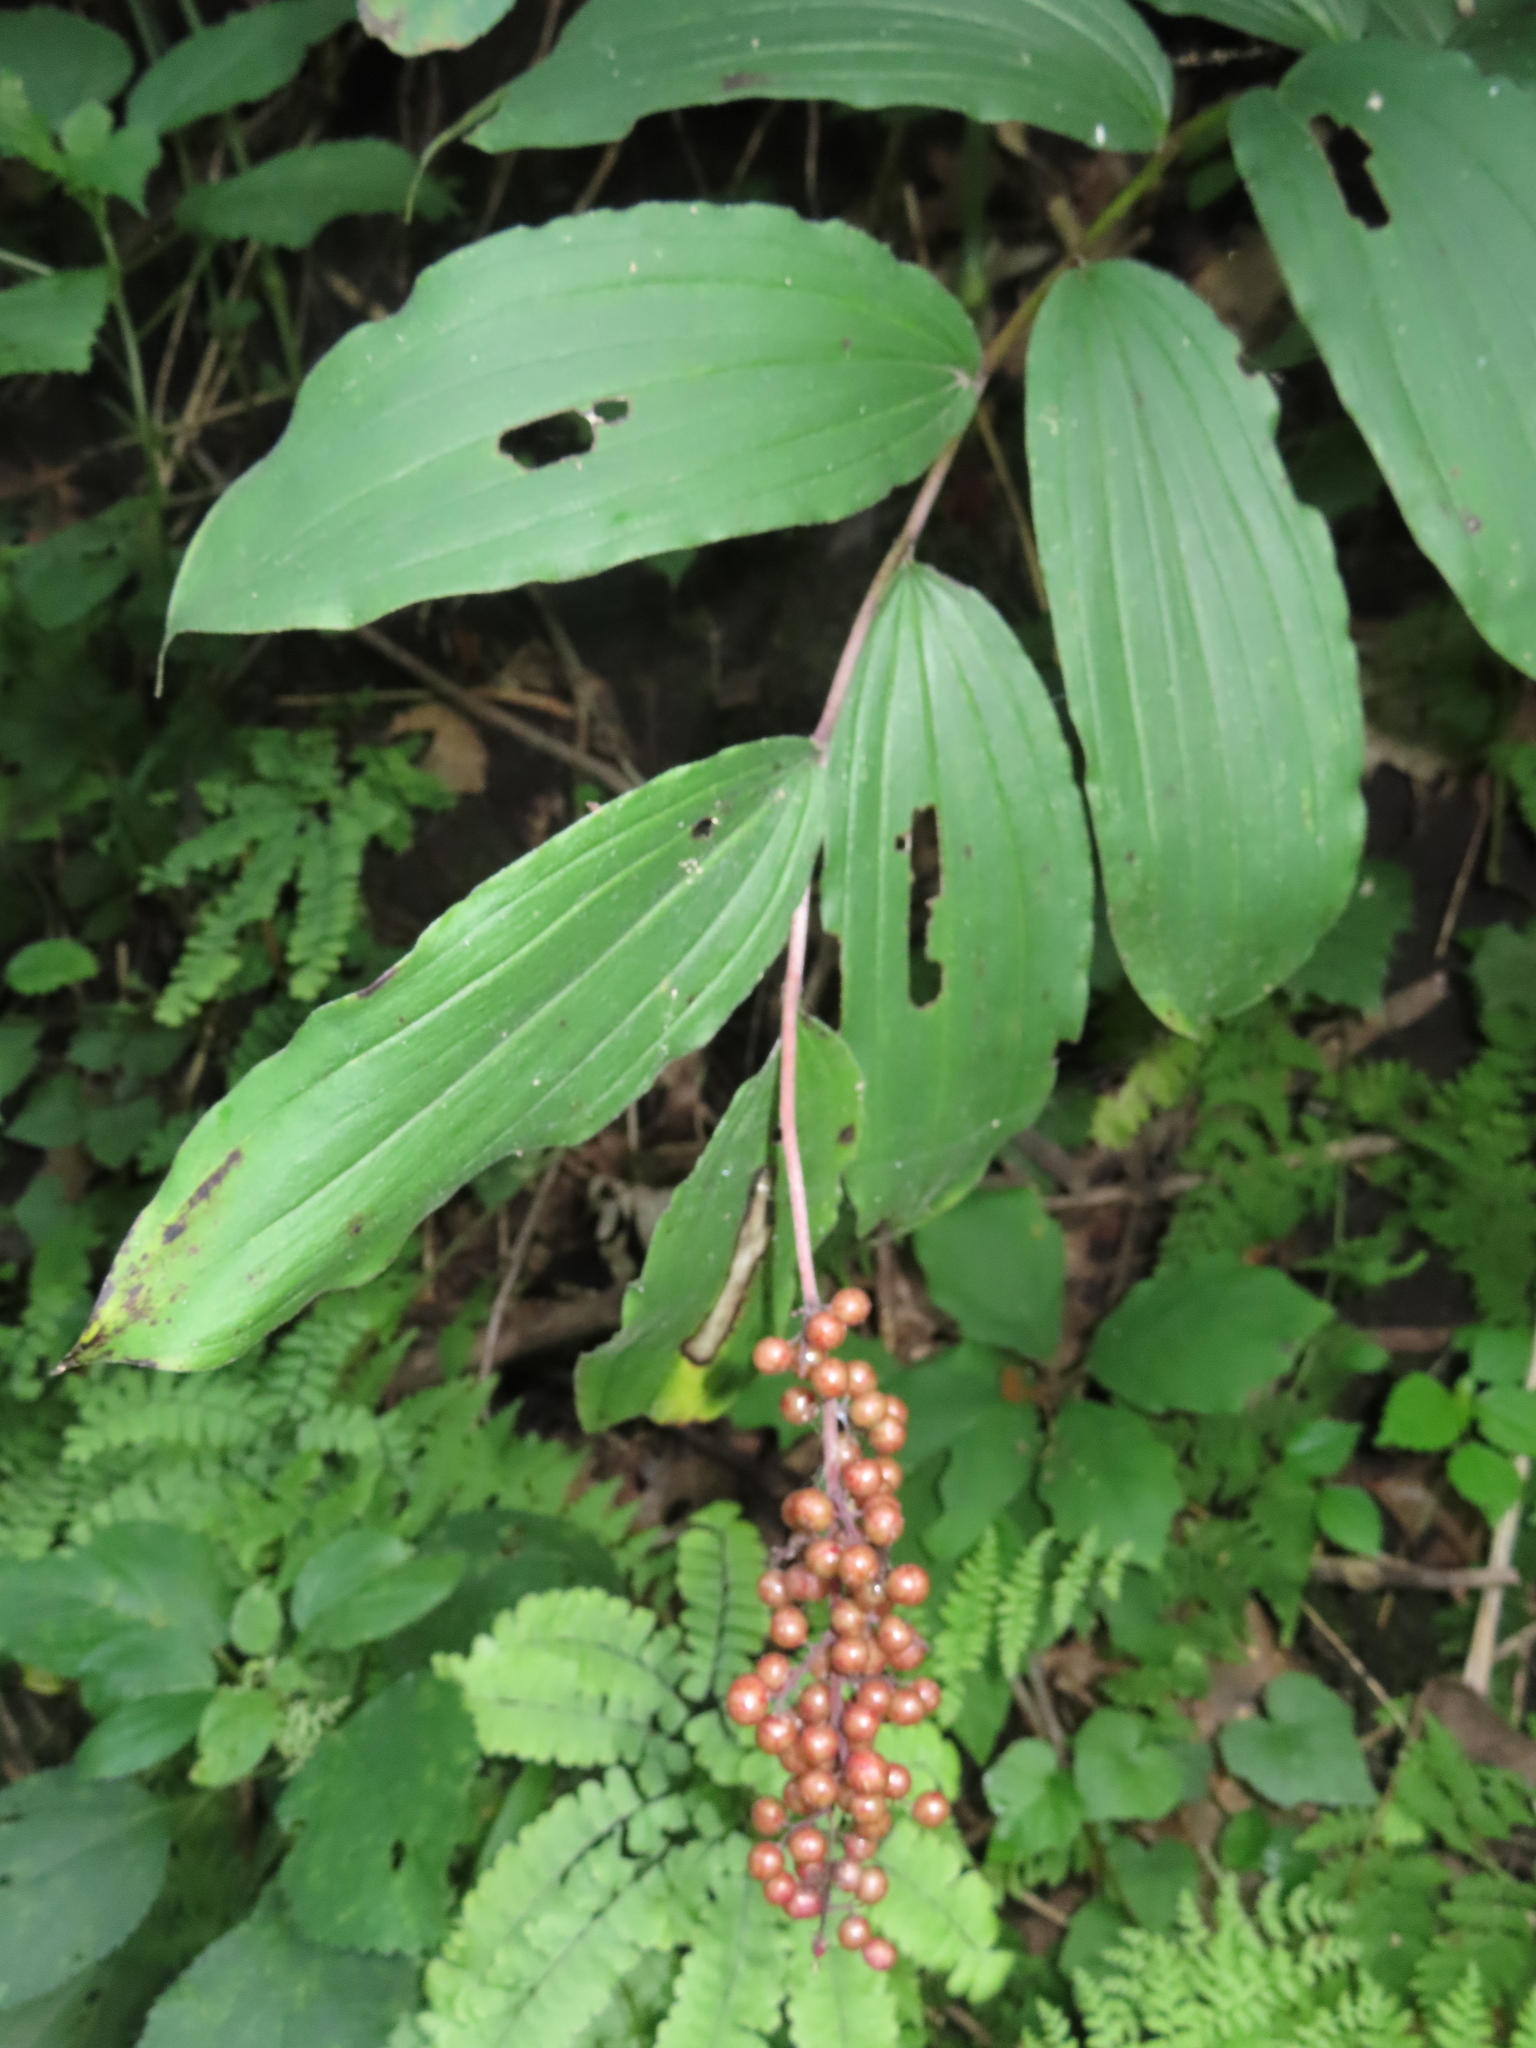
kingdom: Plantae
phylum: Tracheophyta
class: Liliopsida
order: Asparagales
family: Asparagaceae
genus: Maianthemum
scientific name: Maianthemum racemosum
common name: False spikenard
